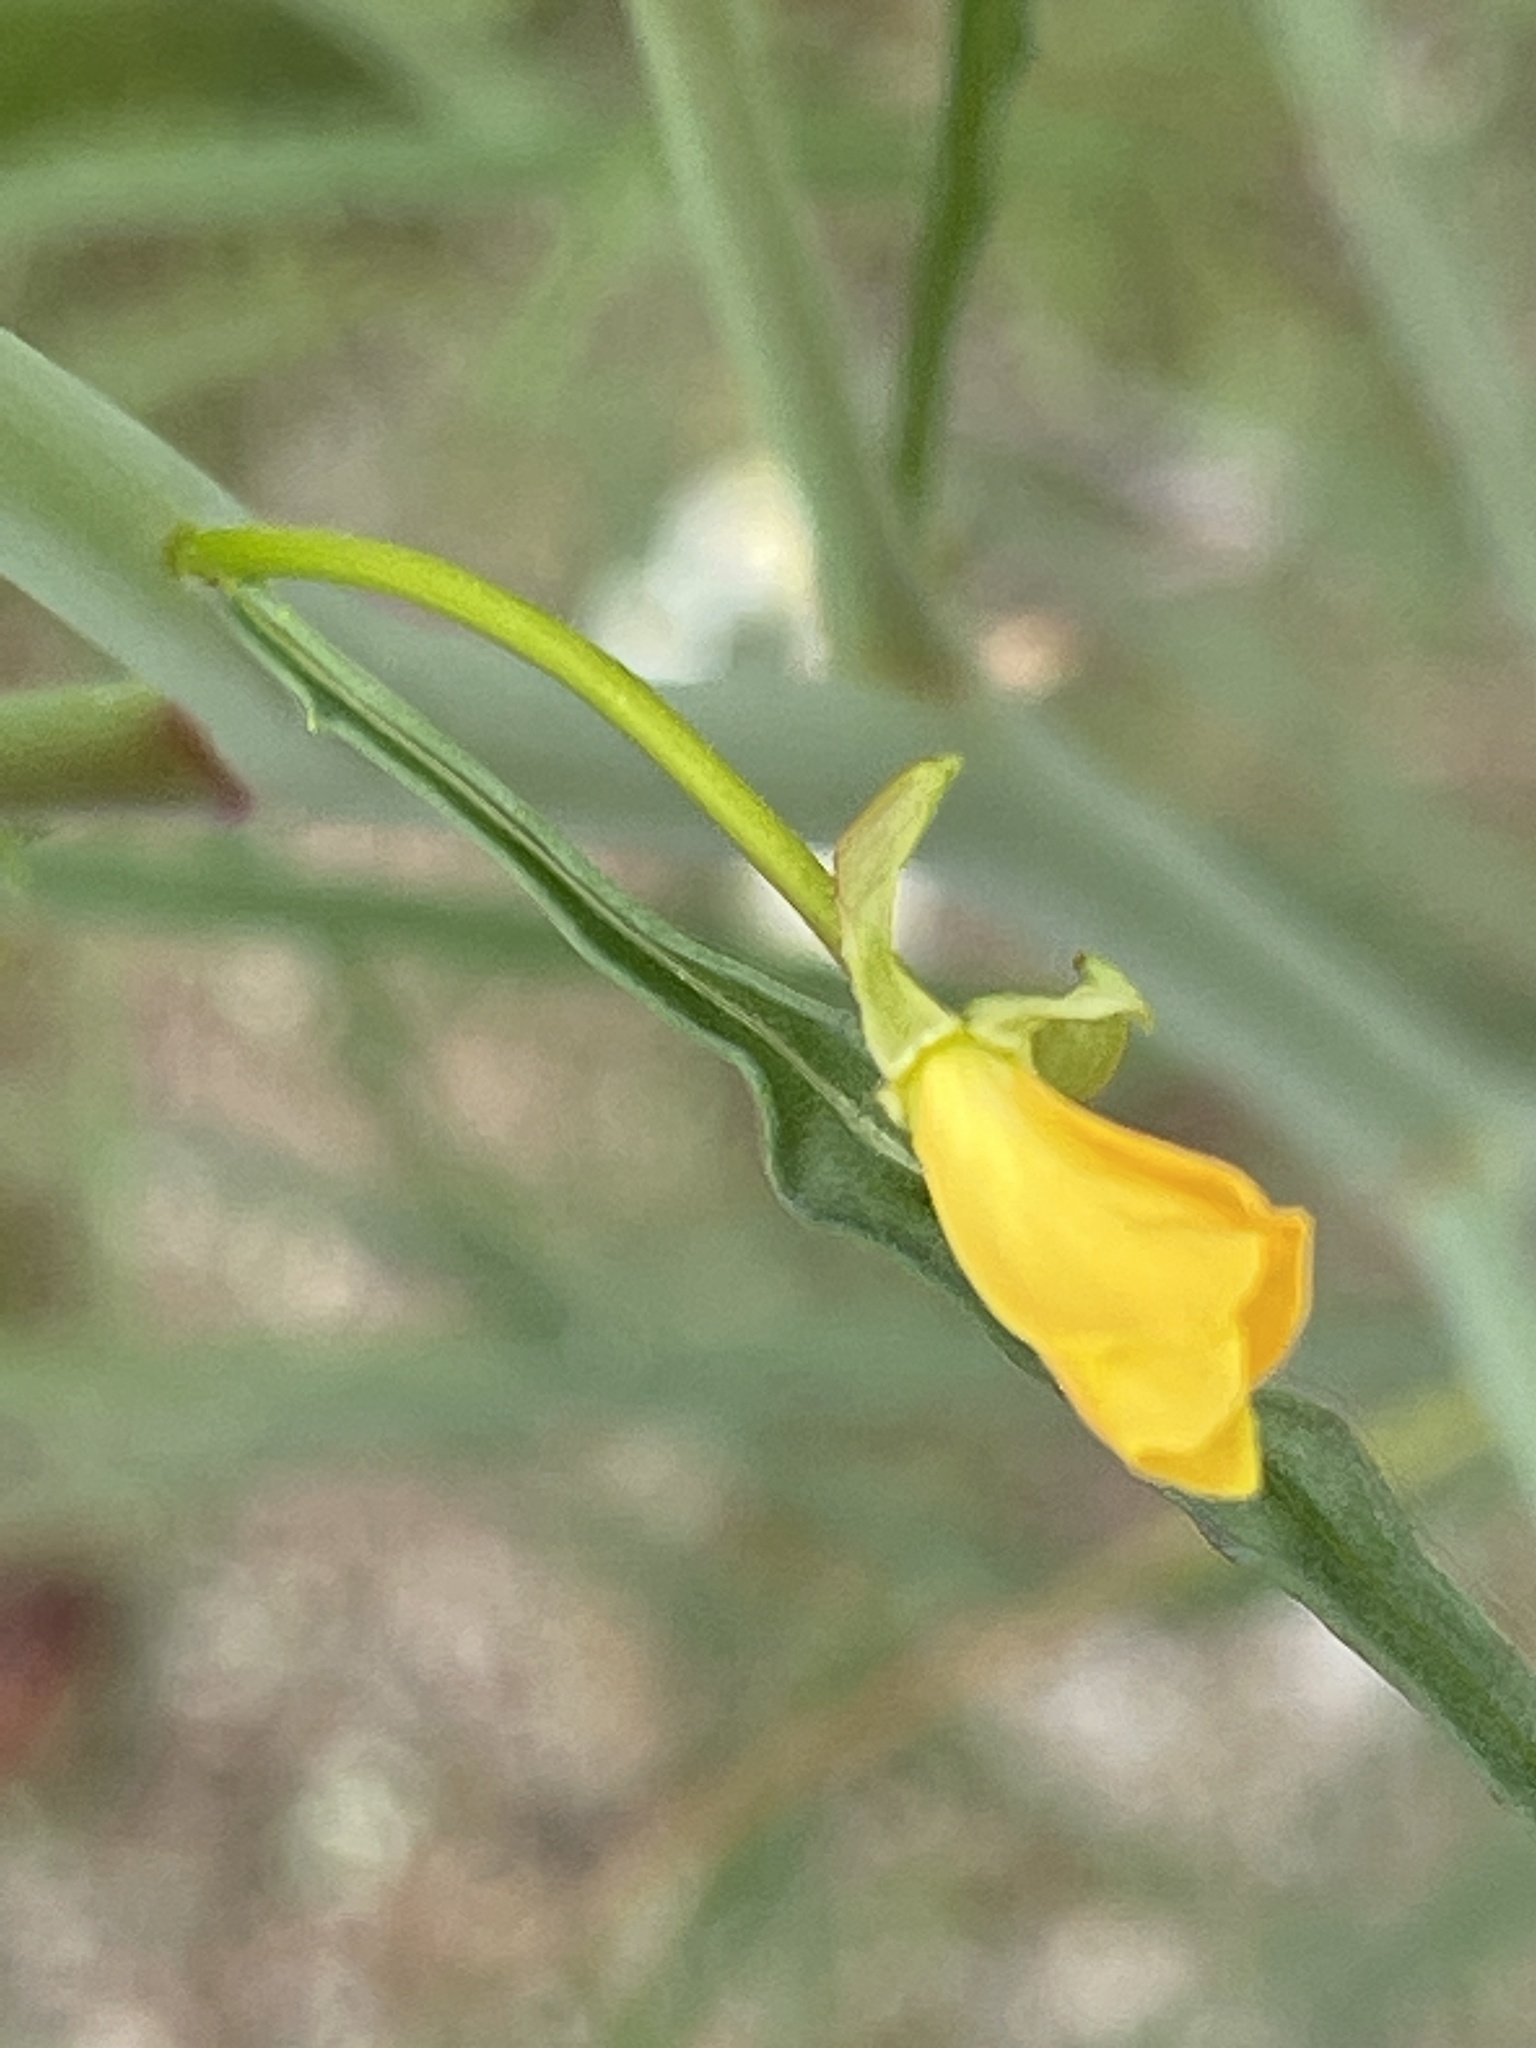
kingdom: Plantae
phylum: Tracheophyta
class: Magnoliopsida
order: Myrtales
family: Onagraceae
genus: Eulobus
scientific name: Eulobus californicus
